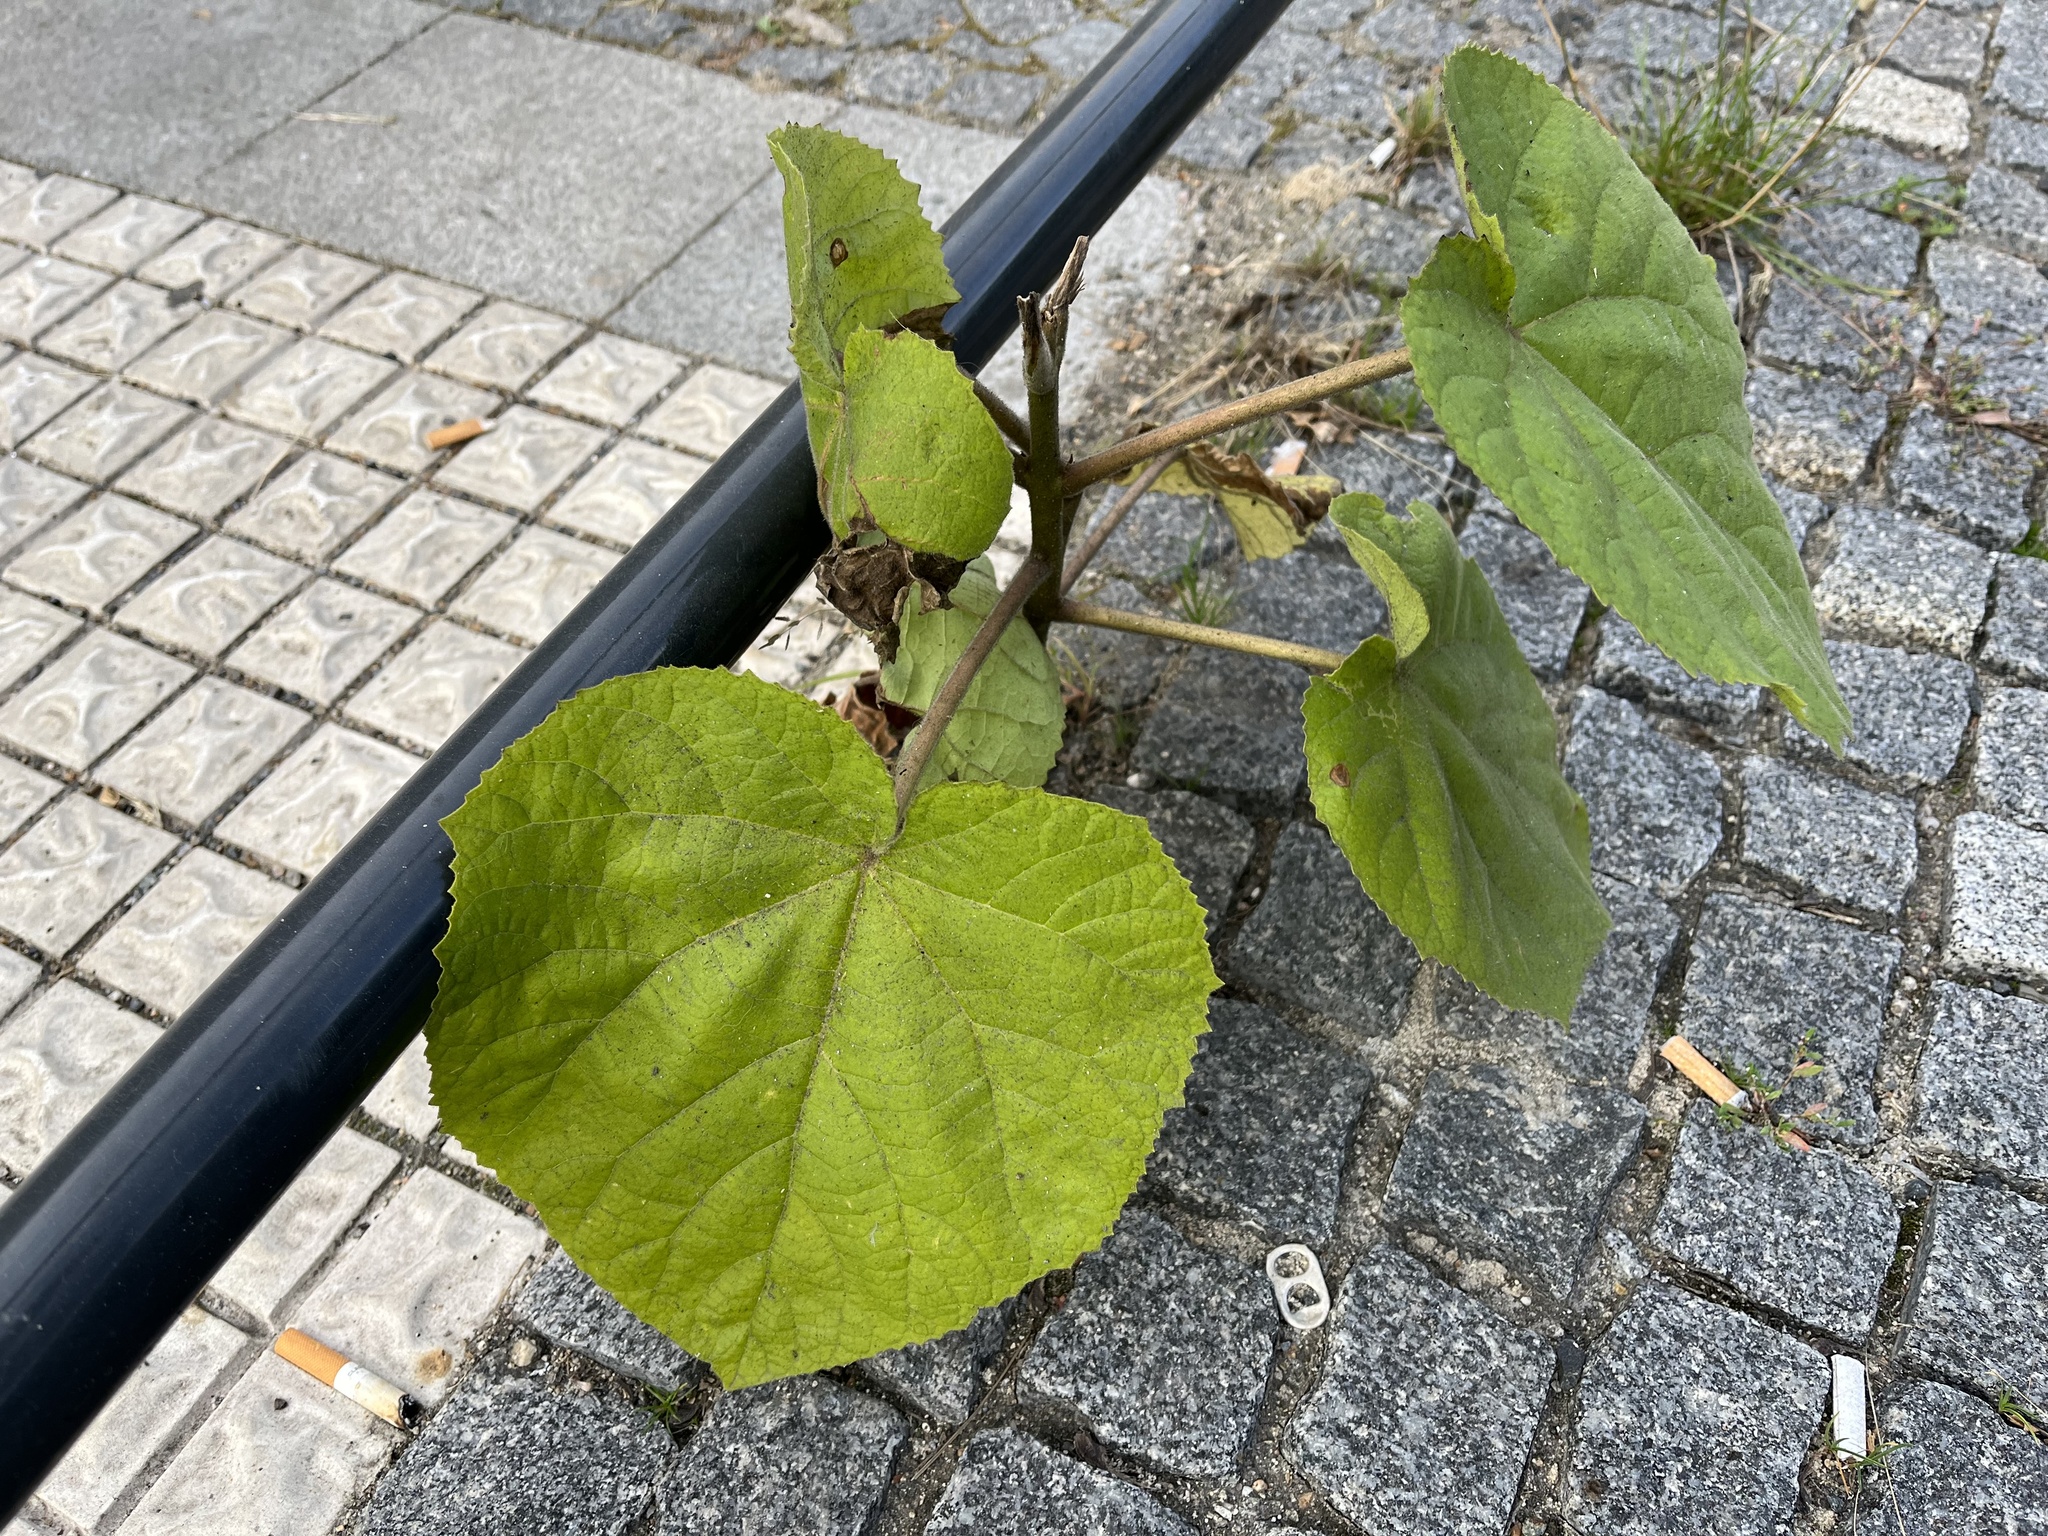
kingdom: Plantae
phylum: Tracheophyta
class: Magnoliopsida
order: Lamiales
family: Paulowniaceae
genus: Paulownia
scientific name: Paulownia tomentosa
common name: Foxglove-tree
